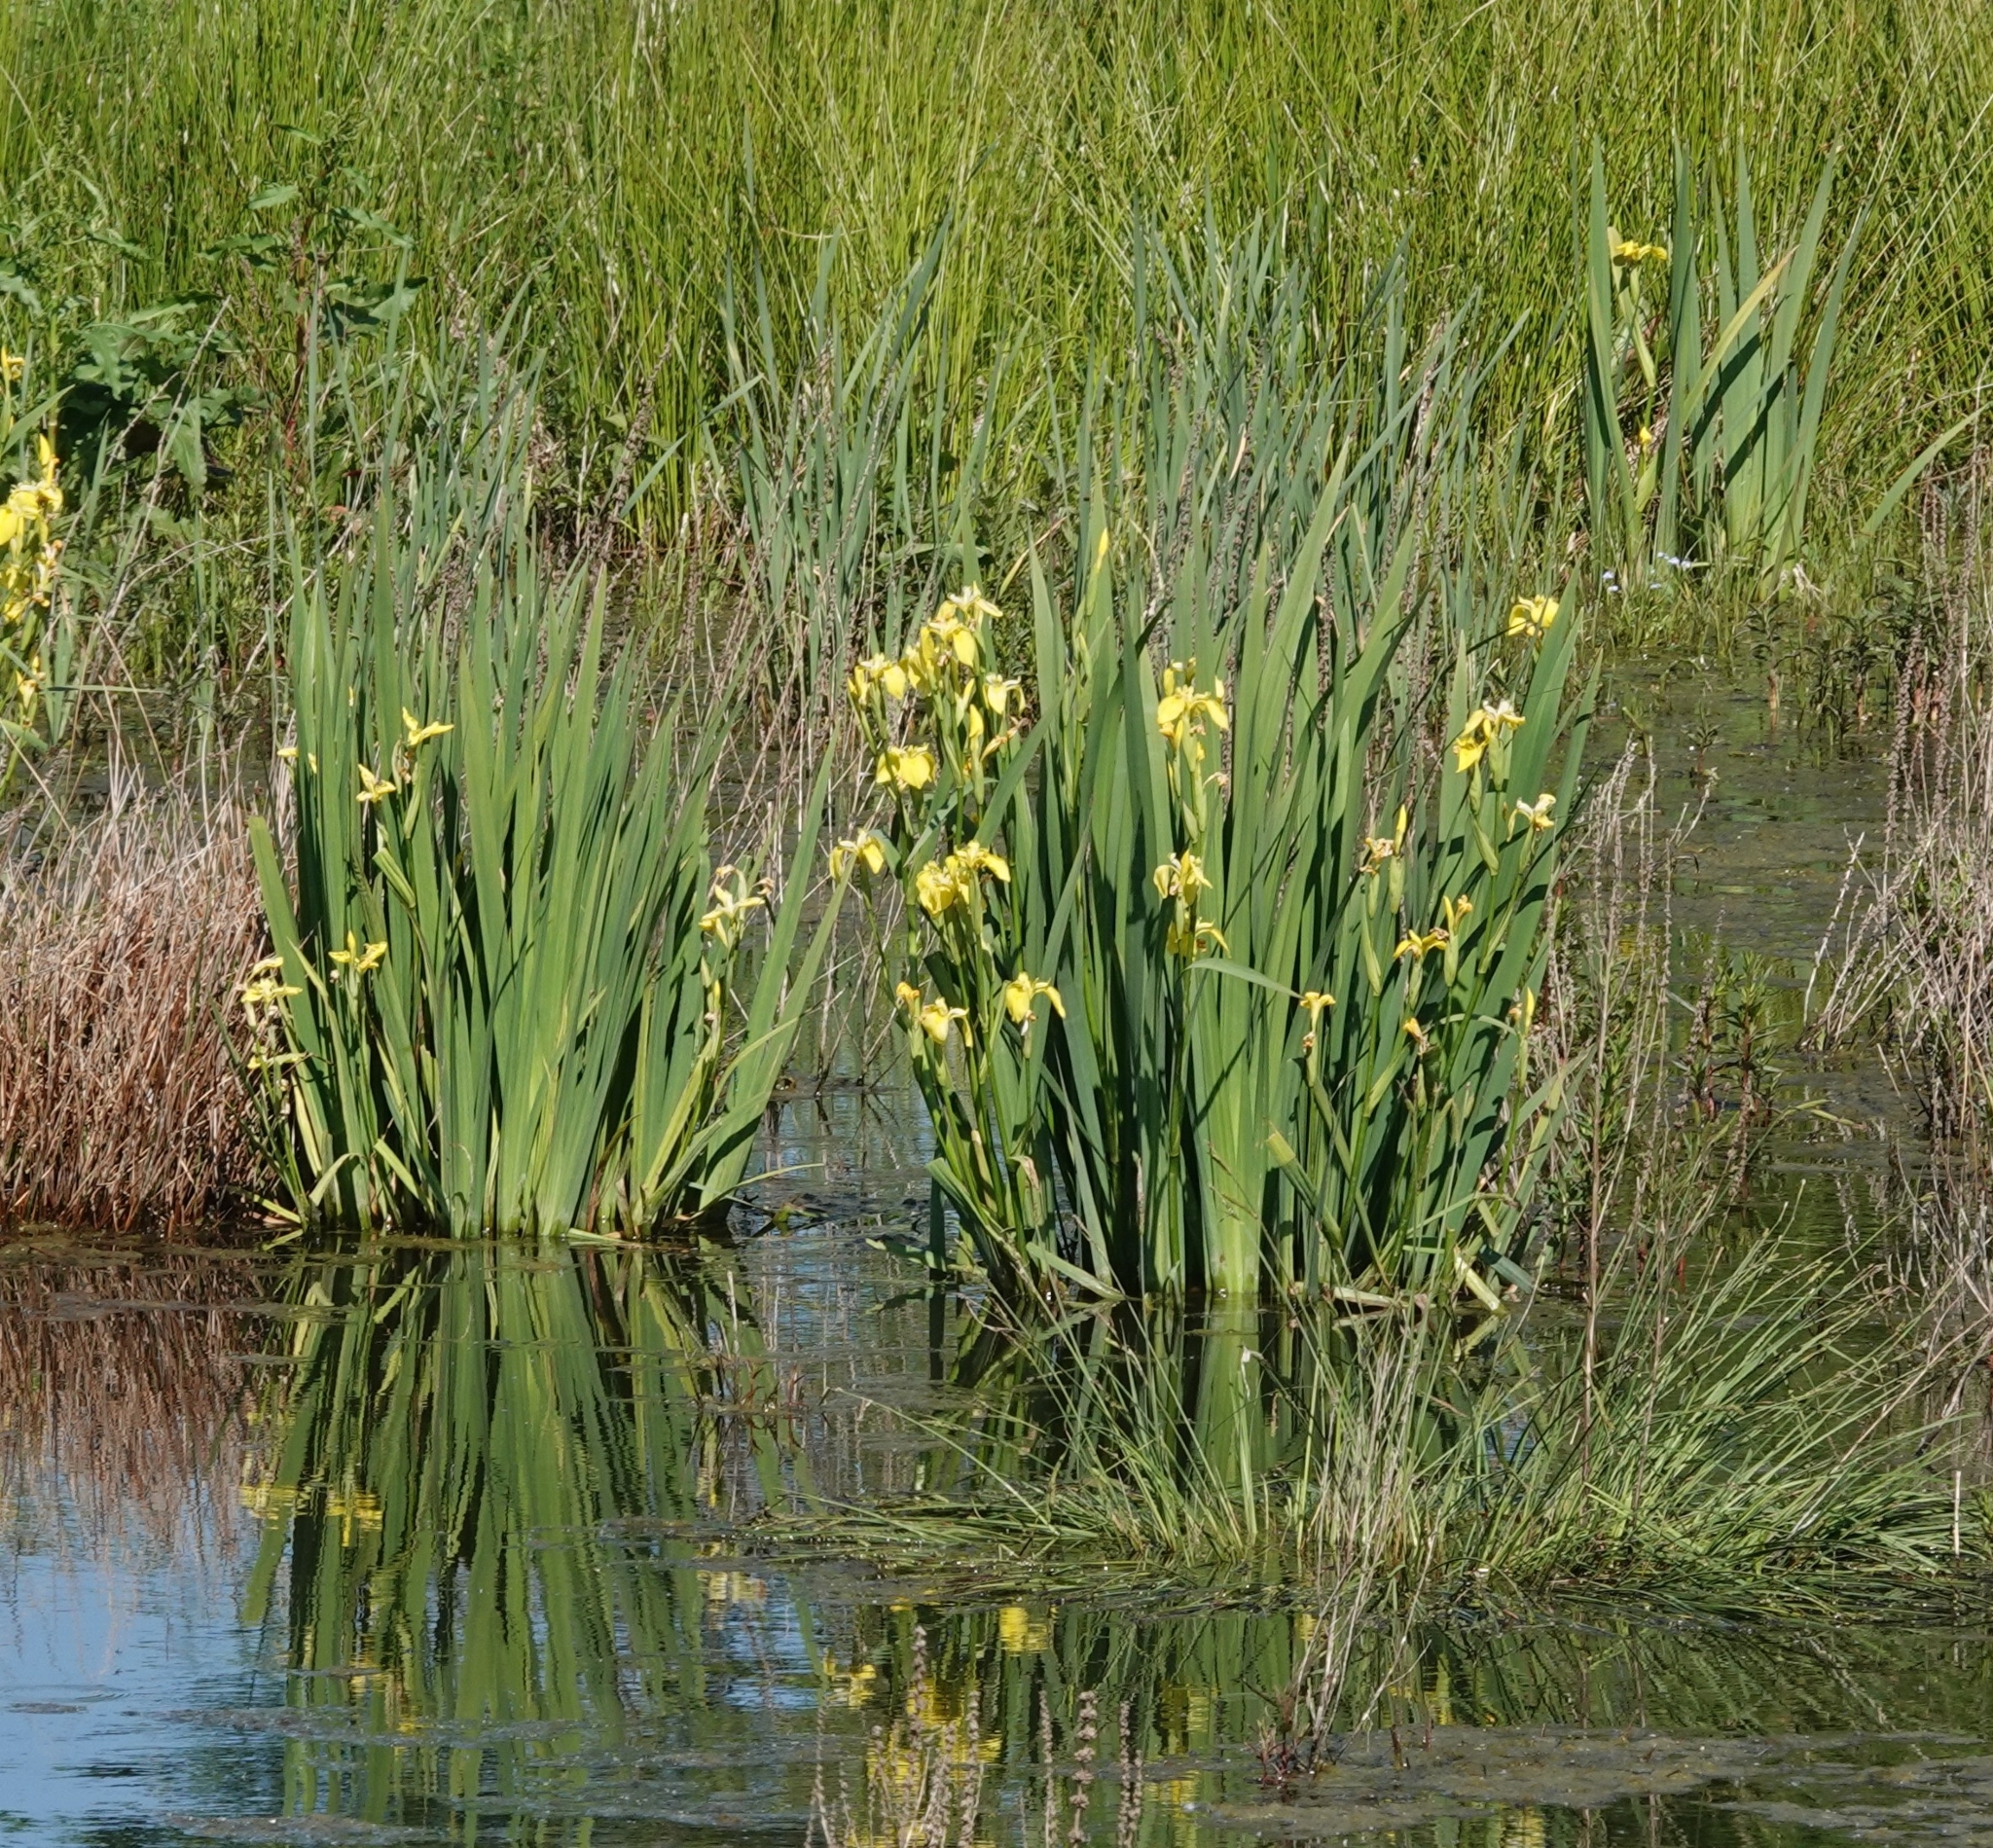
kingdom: Plantae
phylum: Tracheophyta
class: Liliopsida
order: Asparagales
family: Iridaceae
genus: Iris
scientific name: Iris pseudacorus
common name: Yellow flag
